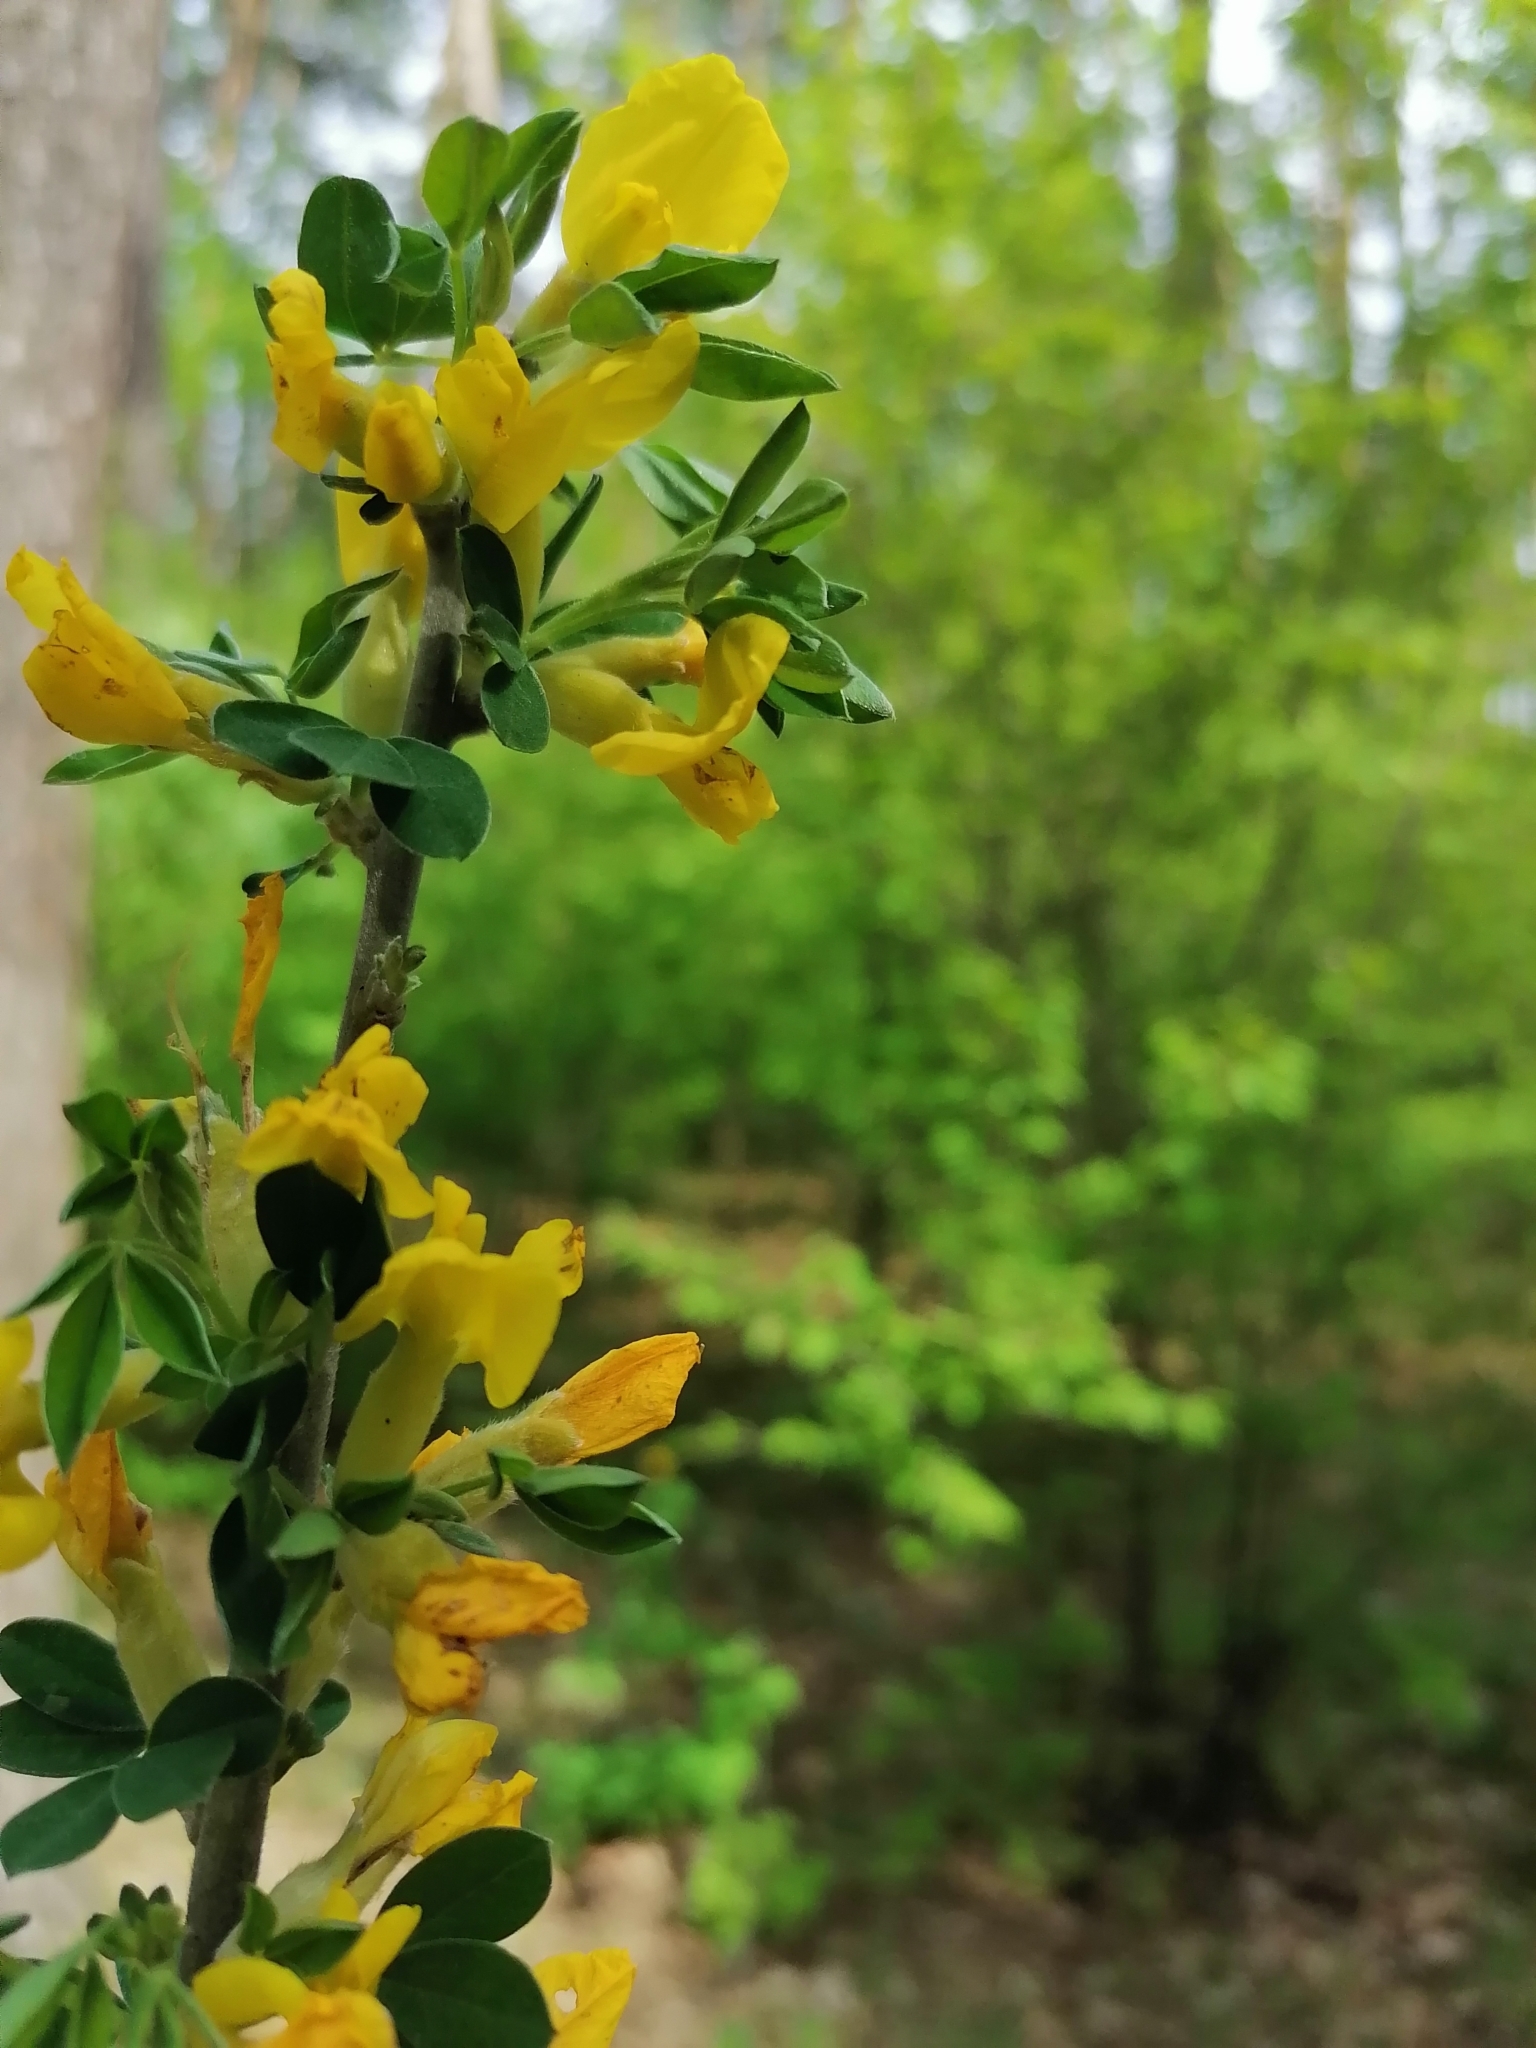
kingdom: Plantae
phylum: Tracheophyta
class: Magnoliopsida
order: Fabales
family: Fabaceae
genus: Chamaecytisus
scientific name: Chamaecytisus ruthenicus
